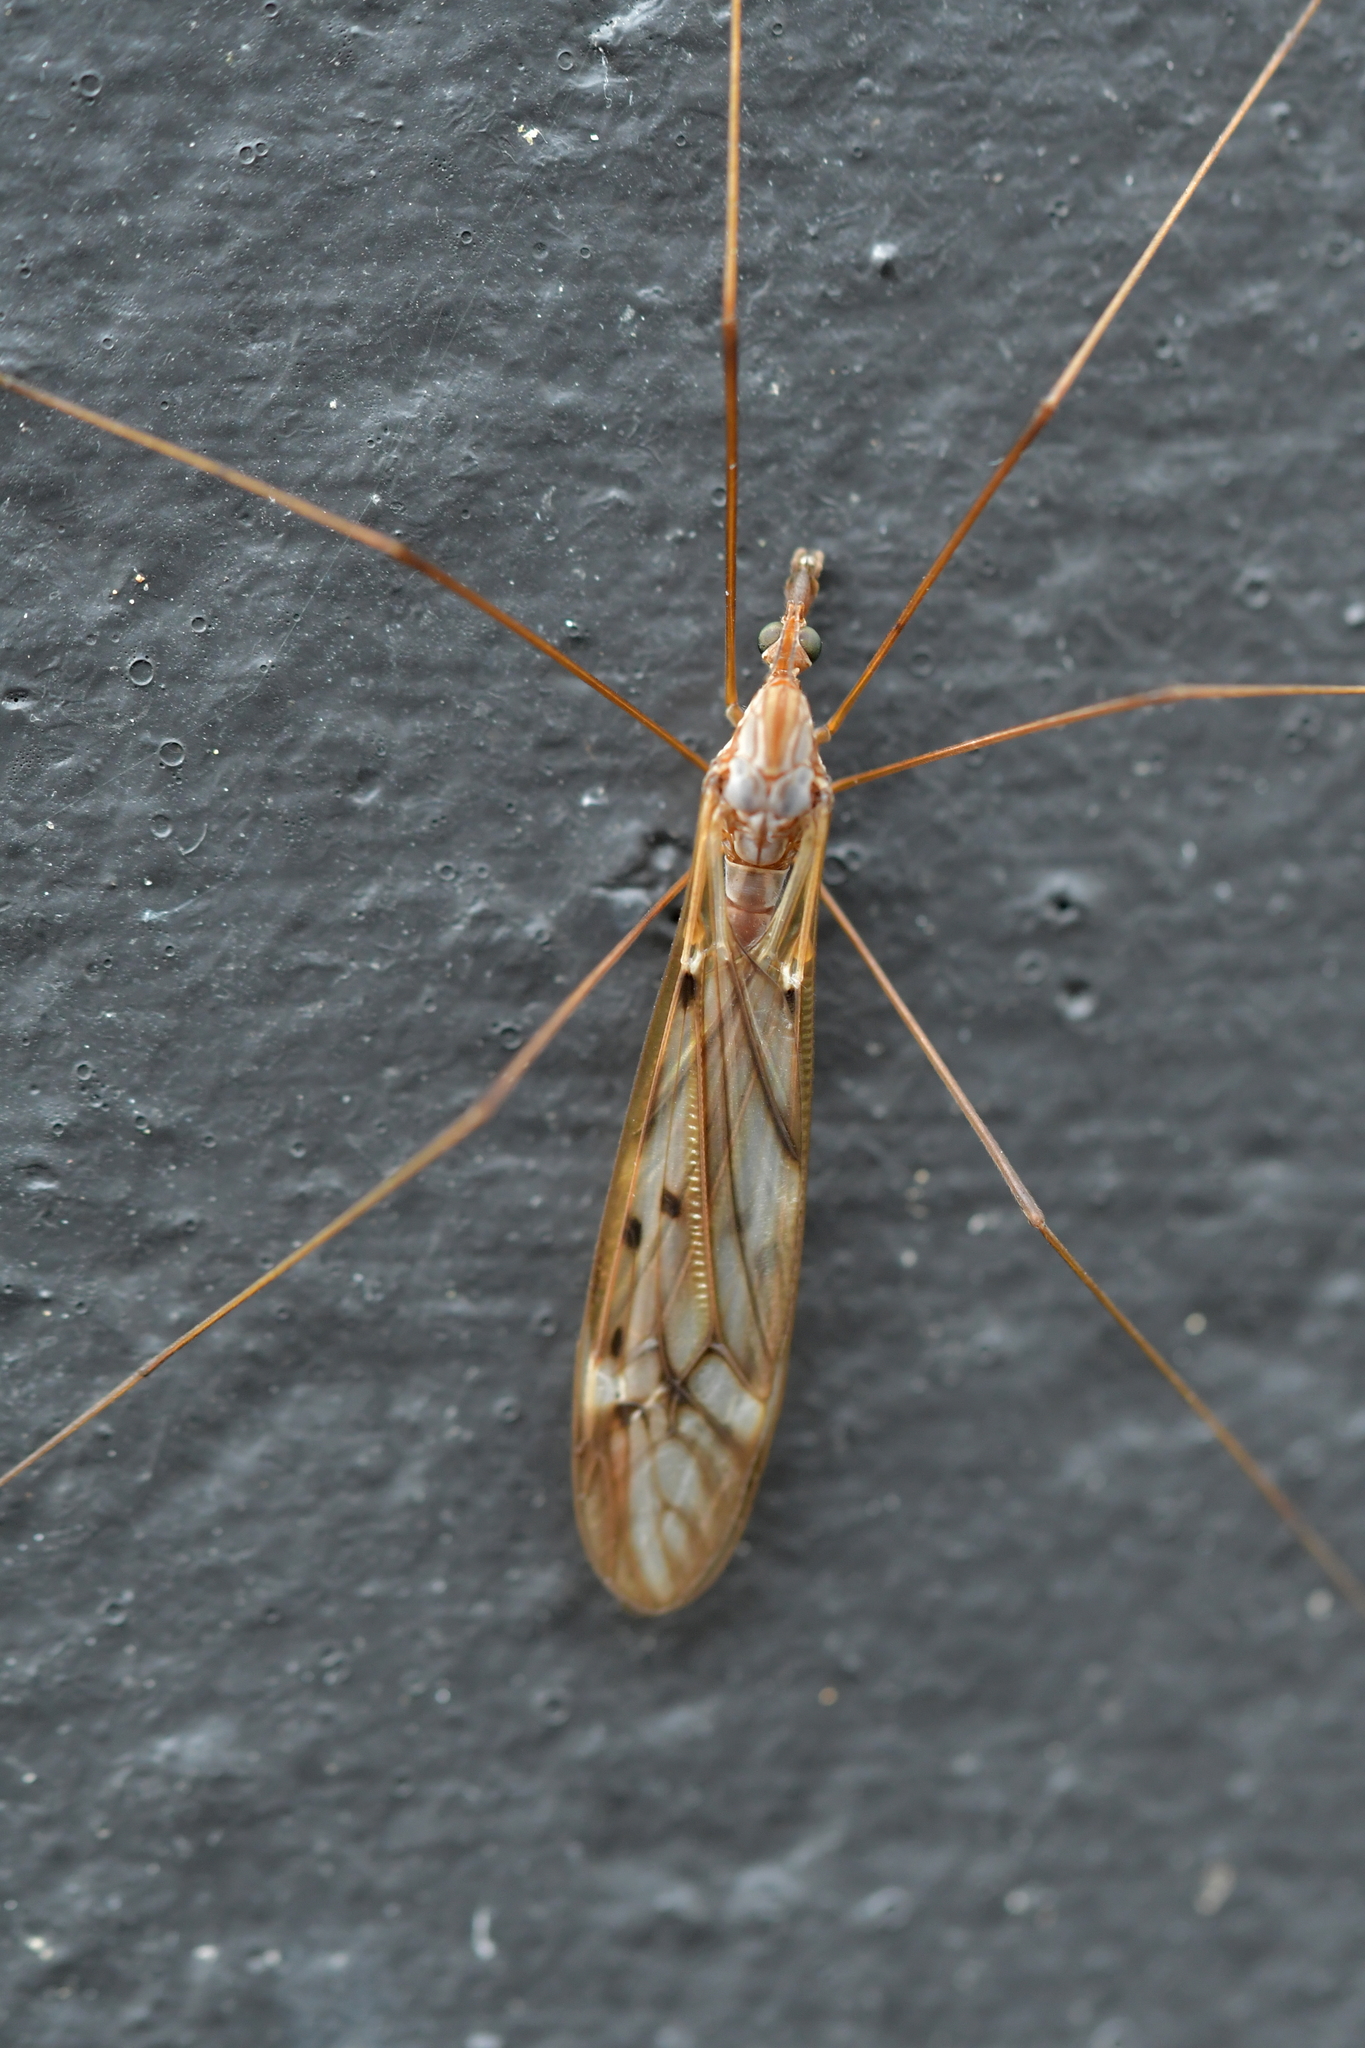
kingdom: Animalia
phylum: Arthropoda
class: Insecta
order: Diptera
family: Tipulidae
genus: Zelandotipula
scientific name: Zelandotipula novarae
